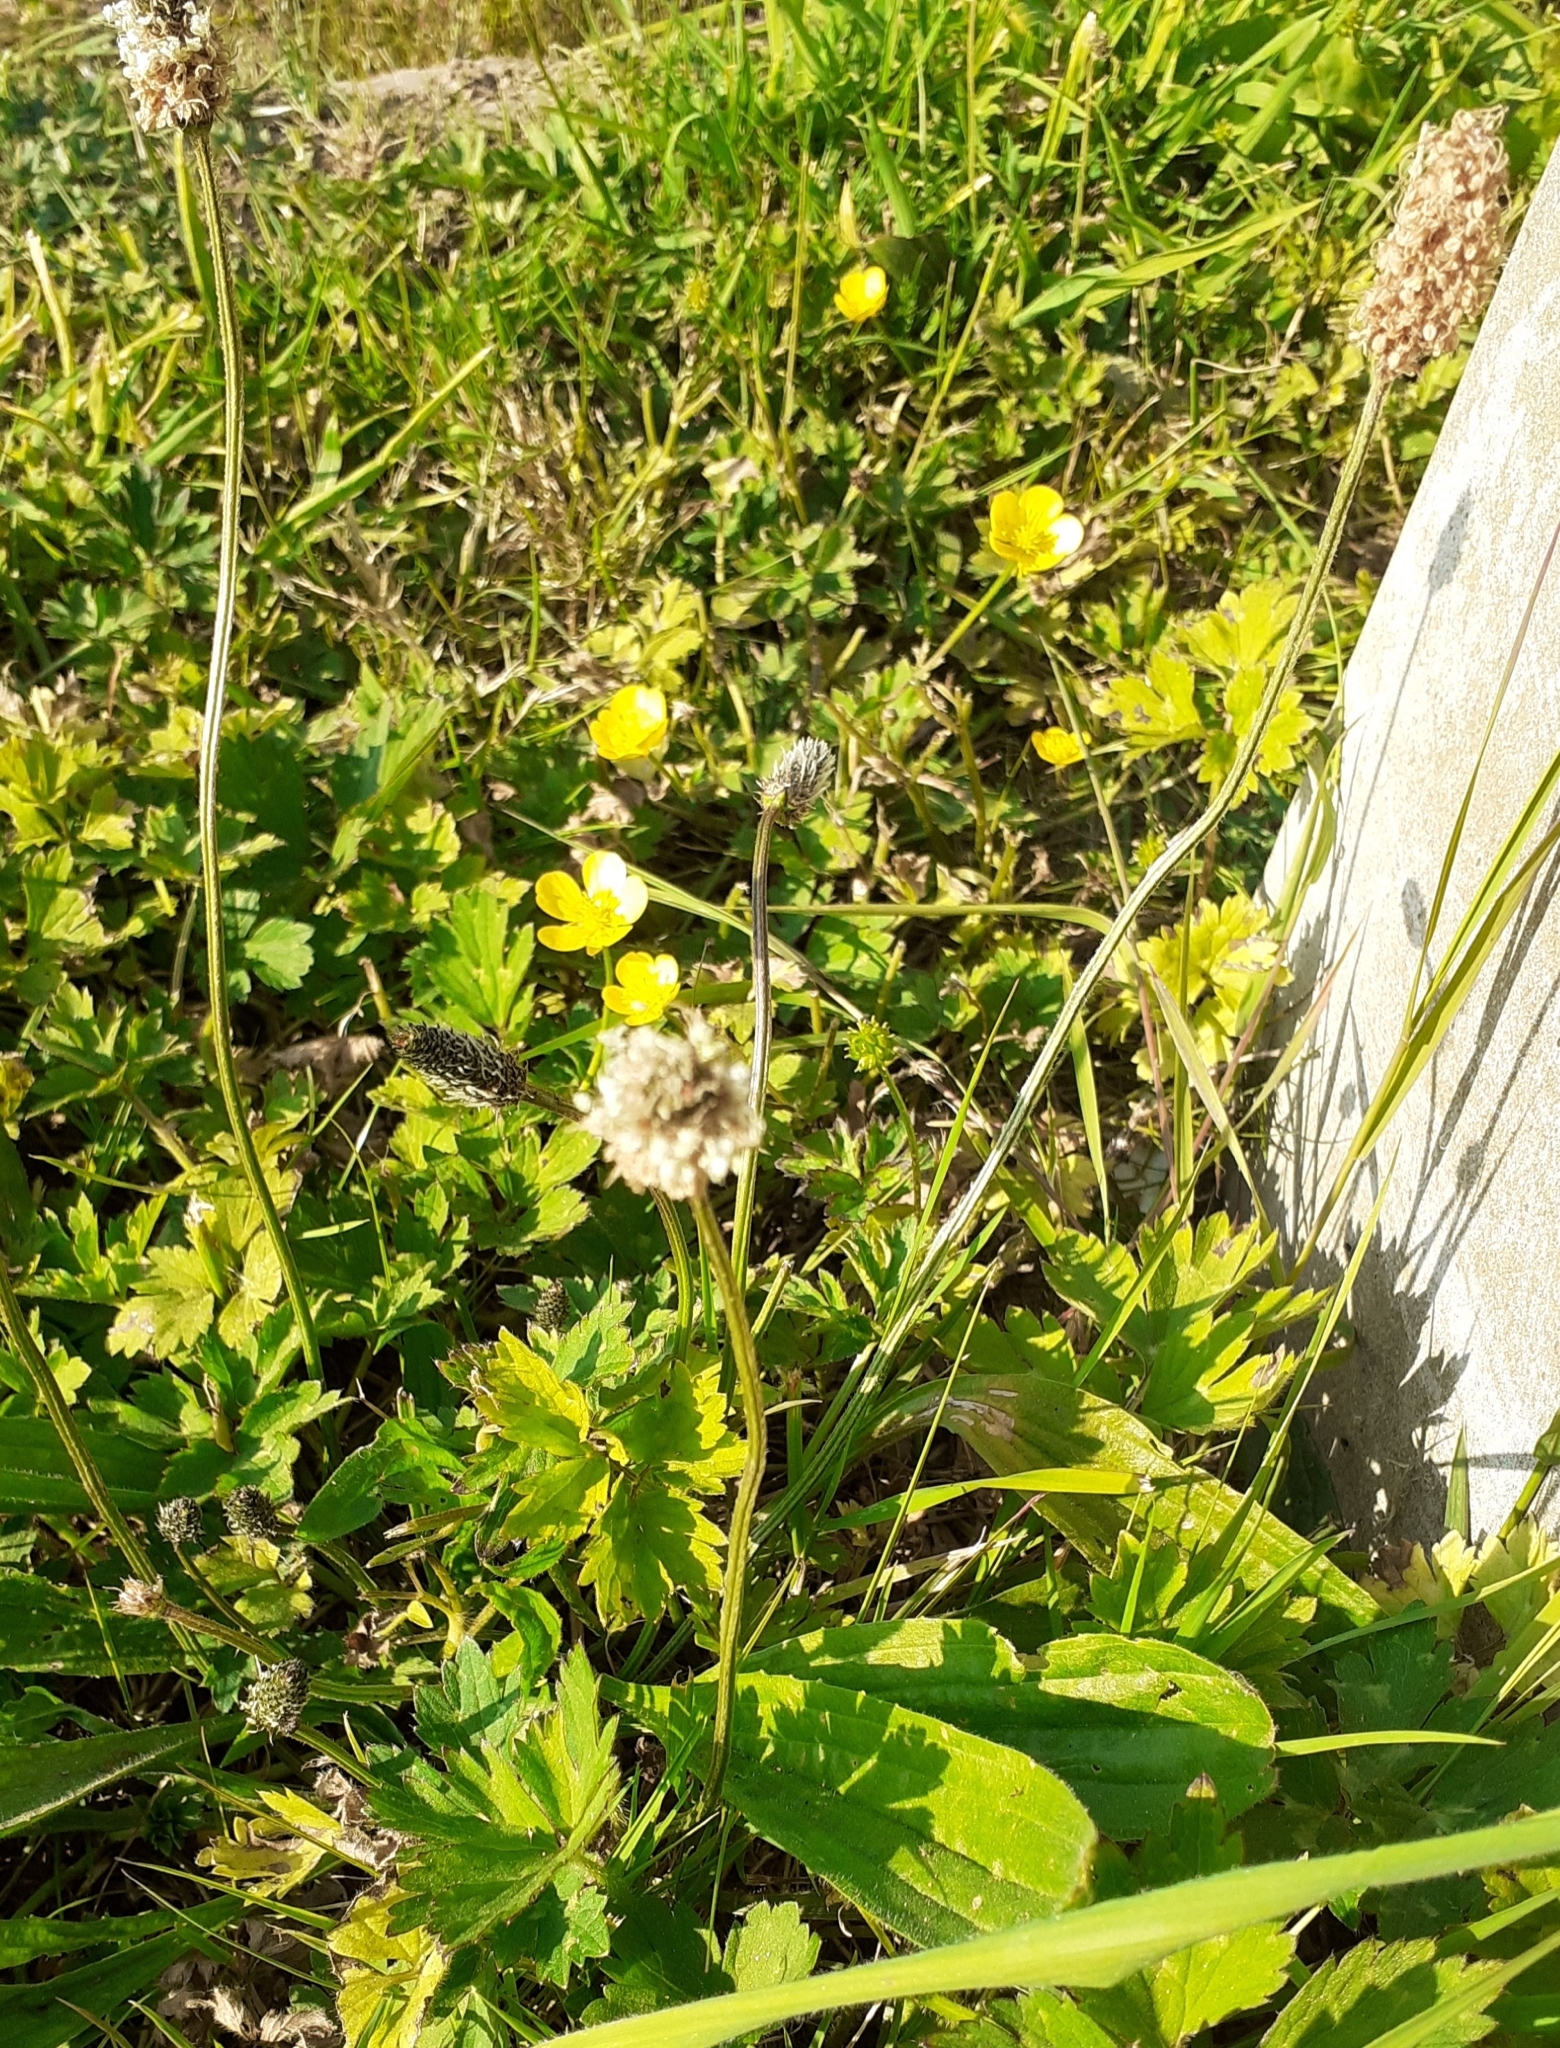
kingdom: Plantae
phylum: Tracheophyta
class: Magnoliopsida
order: Lamiales
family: Plantaginaceae
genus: Plantago
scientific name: Plantago lanceolata
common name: Ribwort plantain
